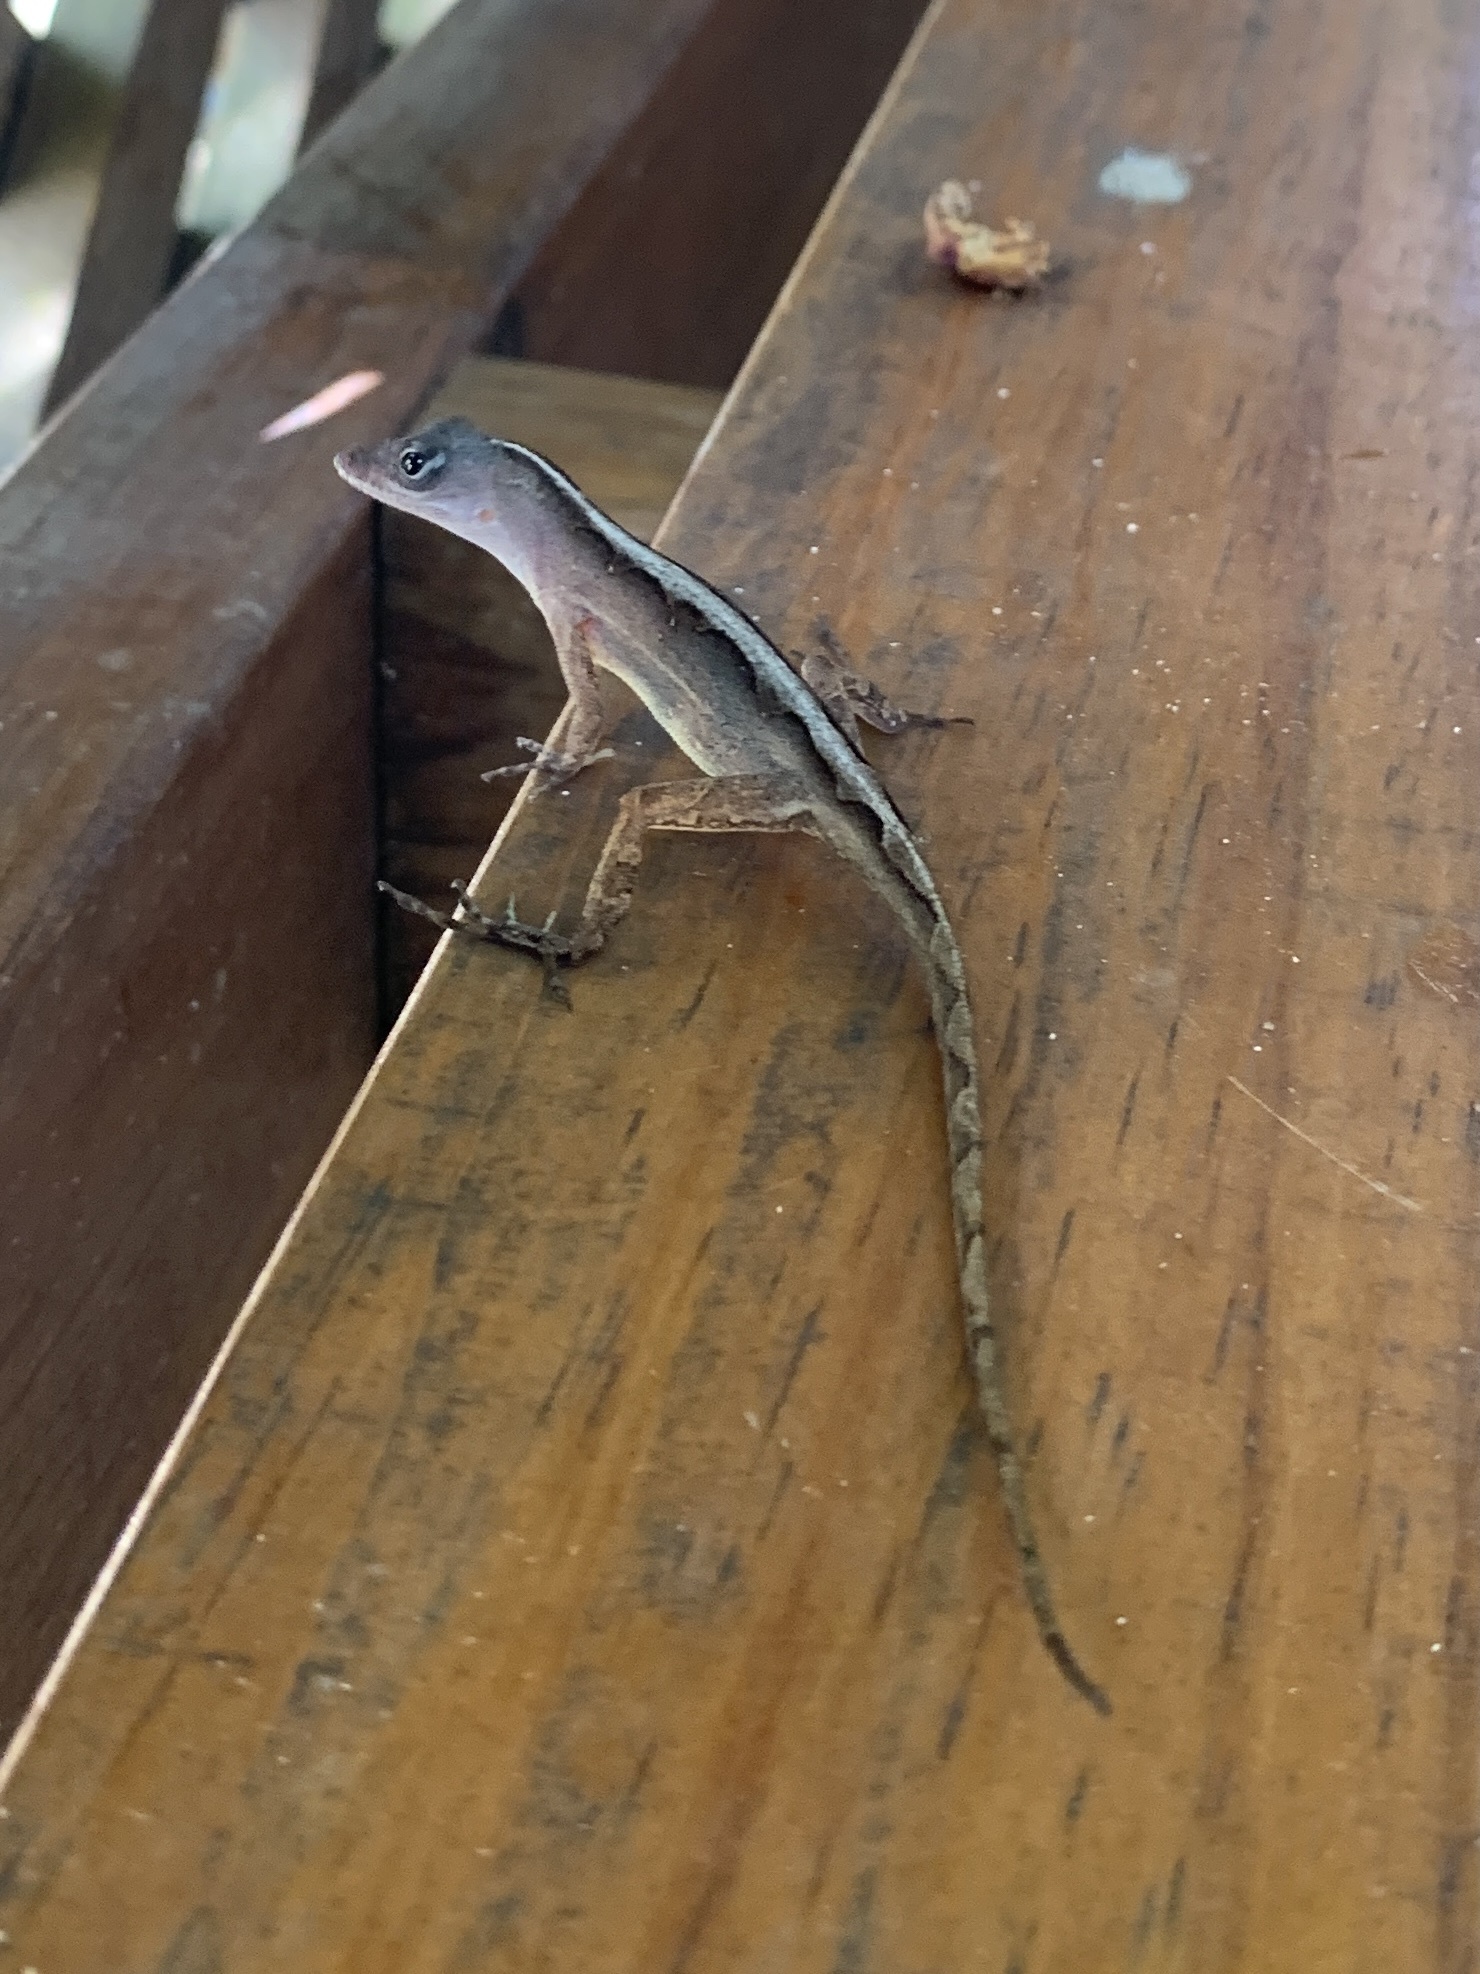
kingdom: Animalia
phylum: Chordata
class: Squamata
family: Dactyloidae
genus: Anolis
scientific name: Anolis sagrei
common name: Brown anole
